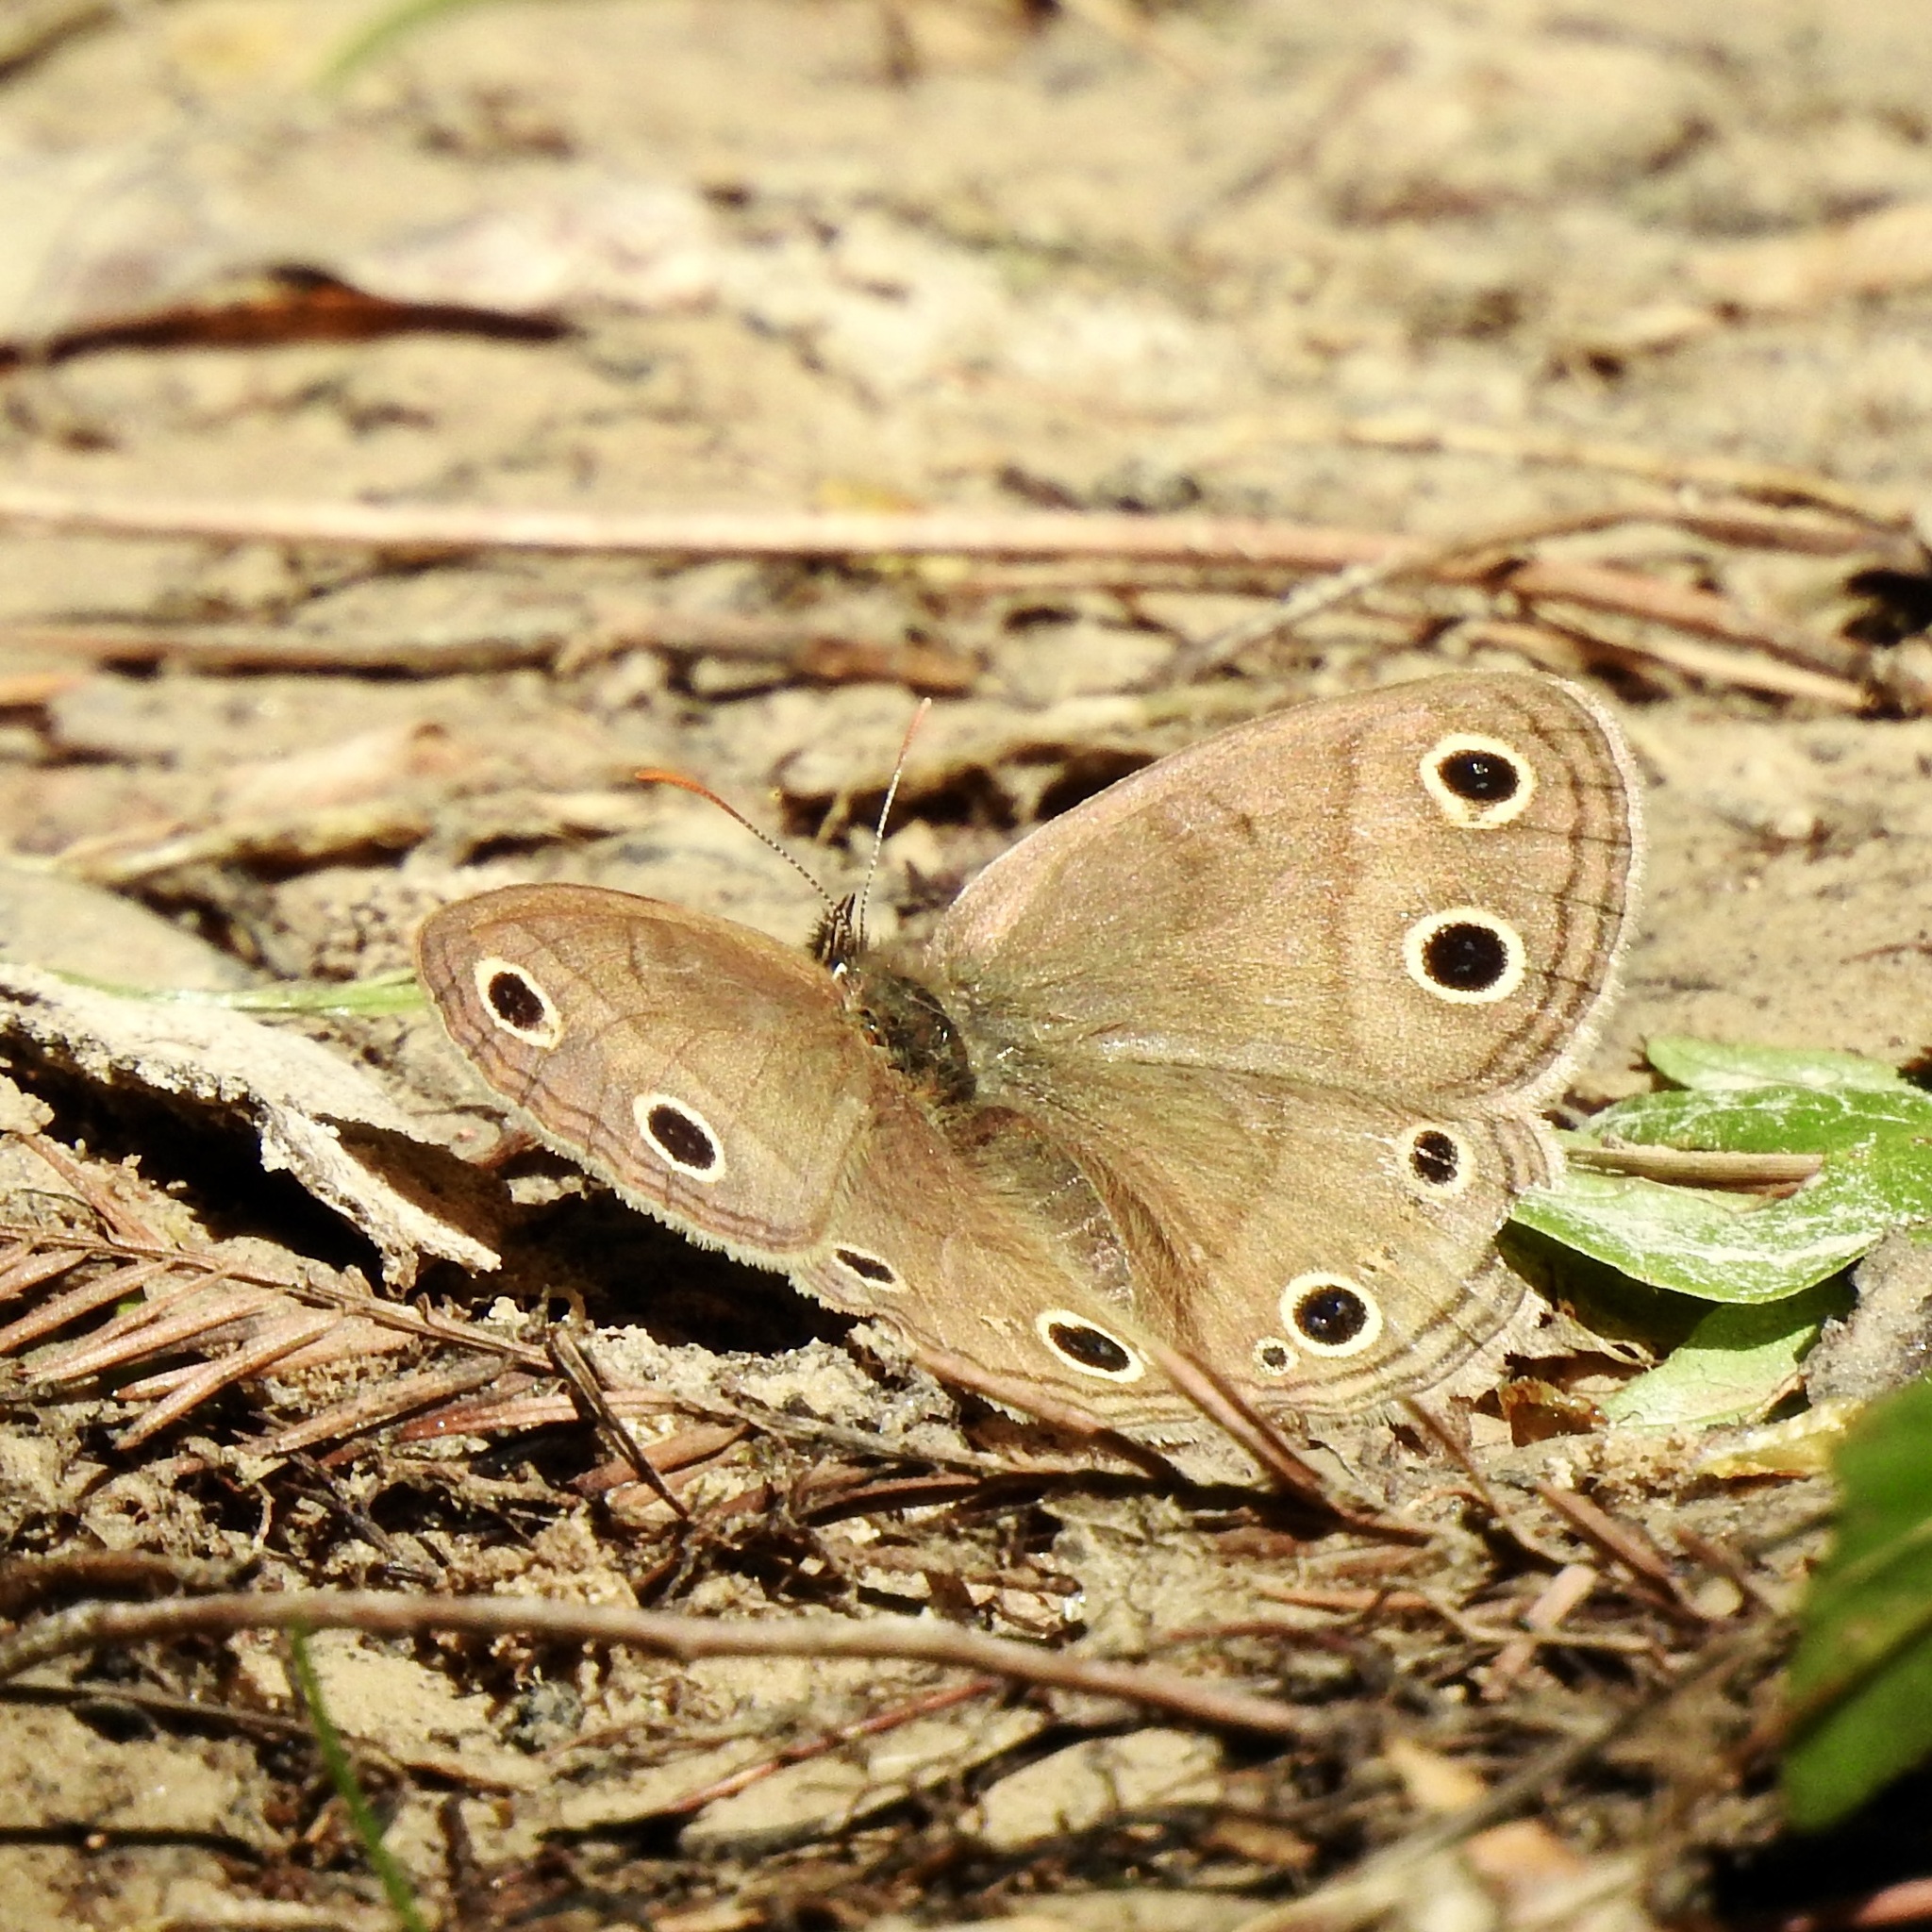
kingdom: Animalia
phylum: Arthropoda
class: Insecta
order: Lepidoptera
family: Nymphalidae
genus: Euptychia
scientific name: Euptychia cymela
